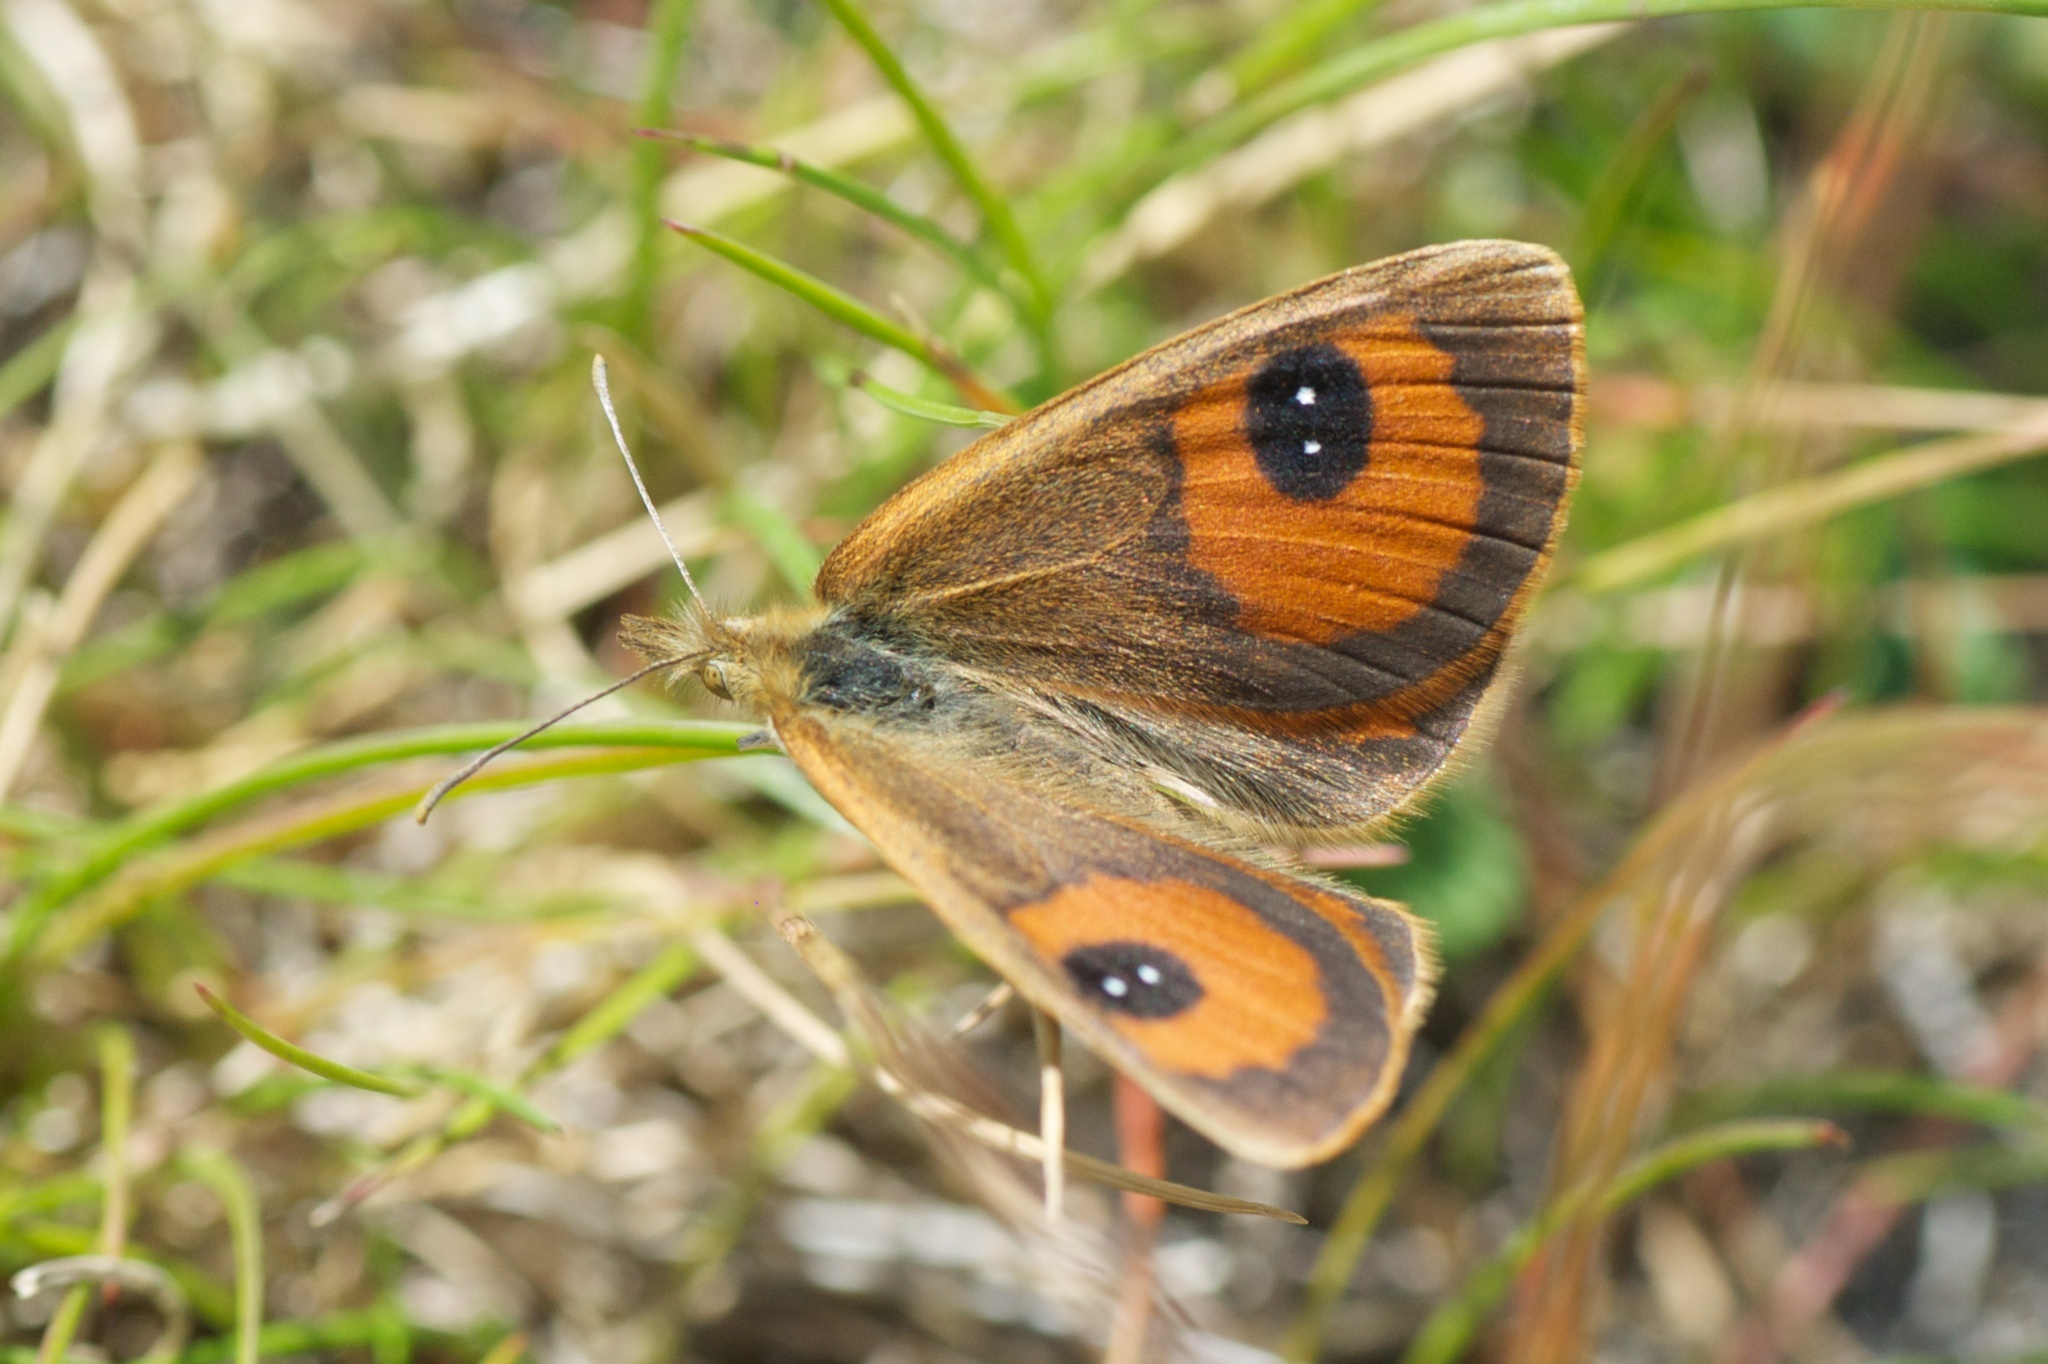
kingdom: Animalia
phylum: Arthropoda
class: Insecta
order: Lepidoptera
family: Nymphalidae
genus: Argyrophenga
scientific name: Argyrophenga antipodum
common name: Common tussock butterfly
